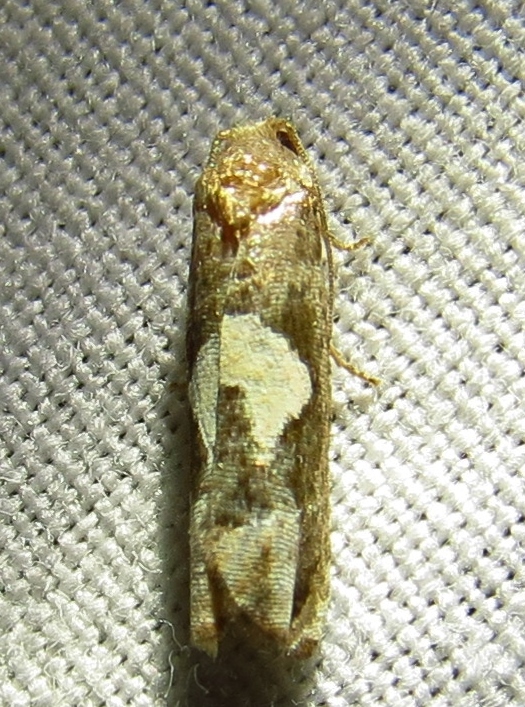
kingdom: Animalia
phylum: Arthropoda
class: Insecta
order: Lepidoptera
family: Tortricidae
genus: Epiblema
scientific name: Epiblema otiosana
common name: Bidens borer moth
